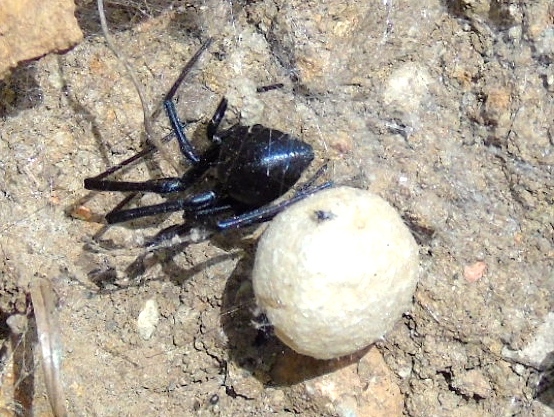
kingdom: Animalia
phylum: Arthropoda
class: Arachnida
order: Araneae
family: Theridiidae
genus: Latrodectus
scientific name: Latrodectus
